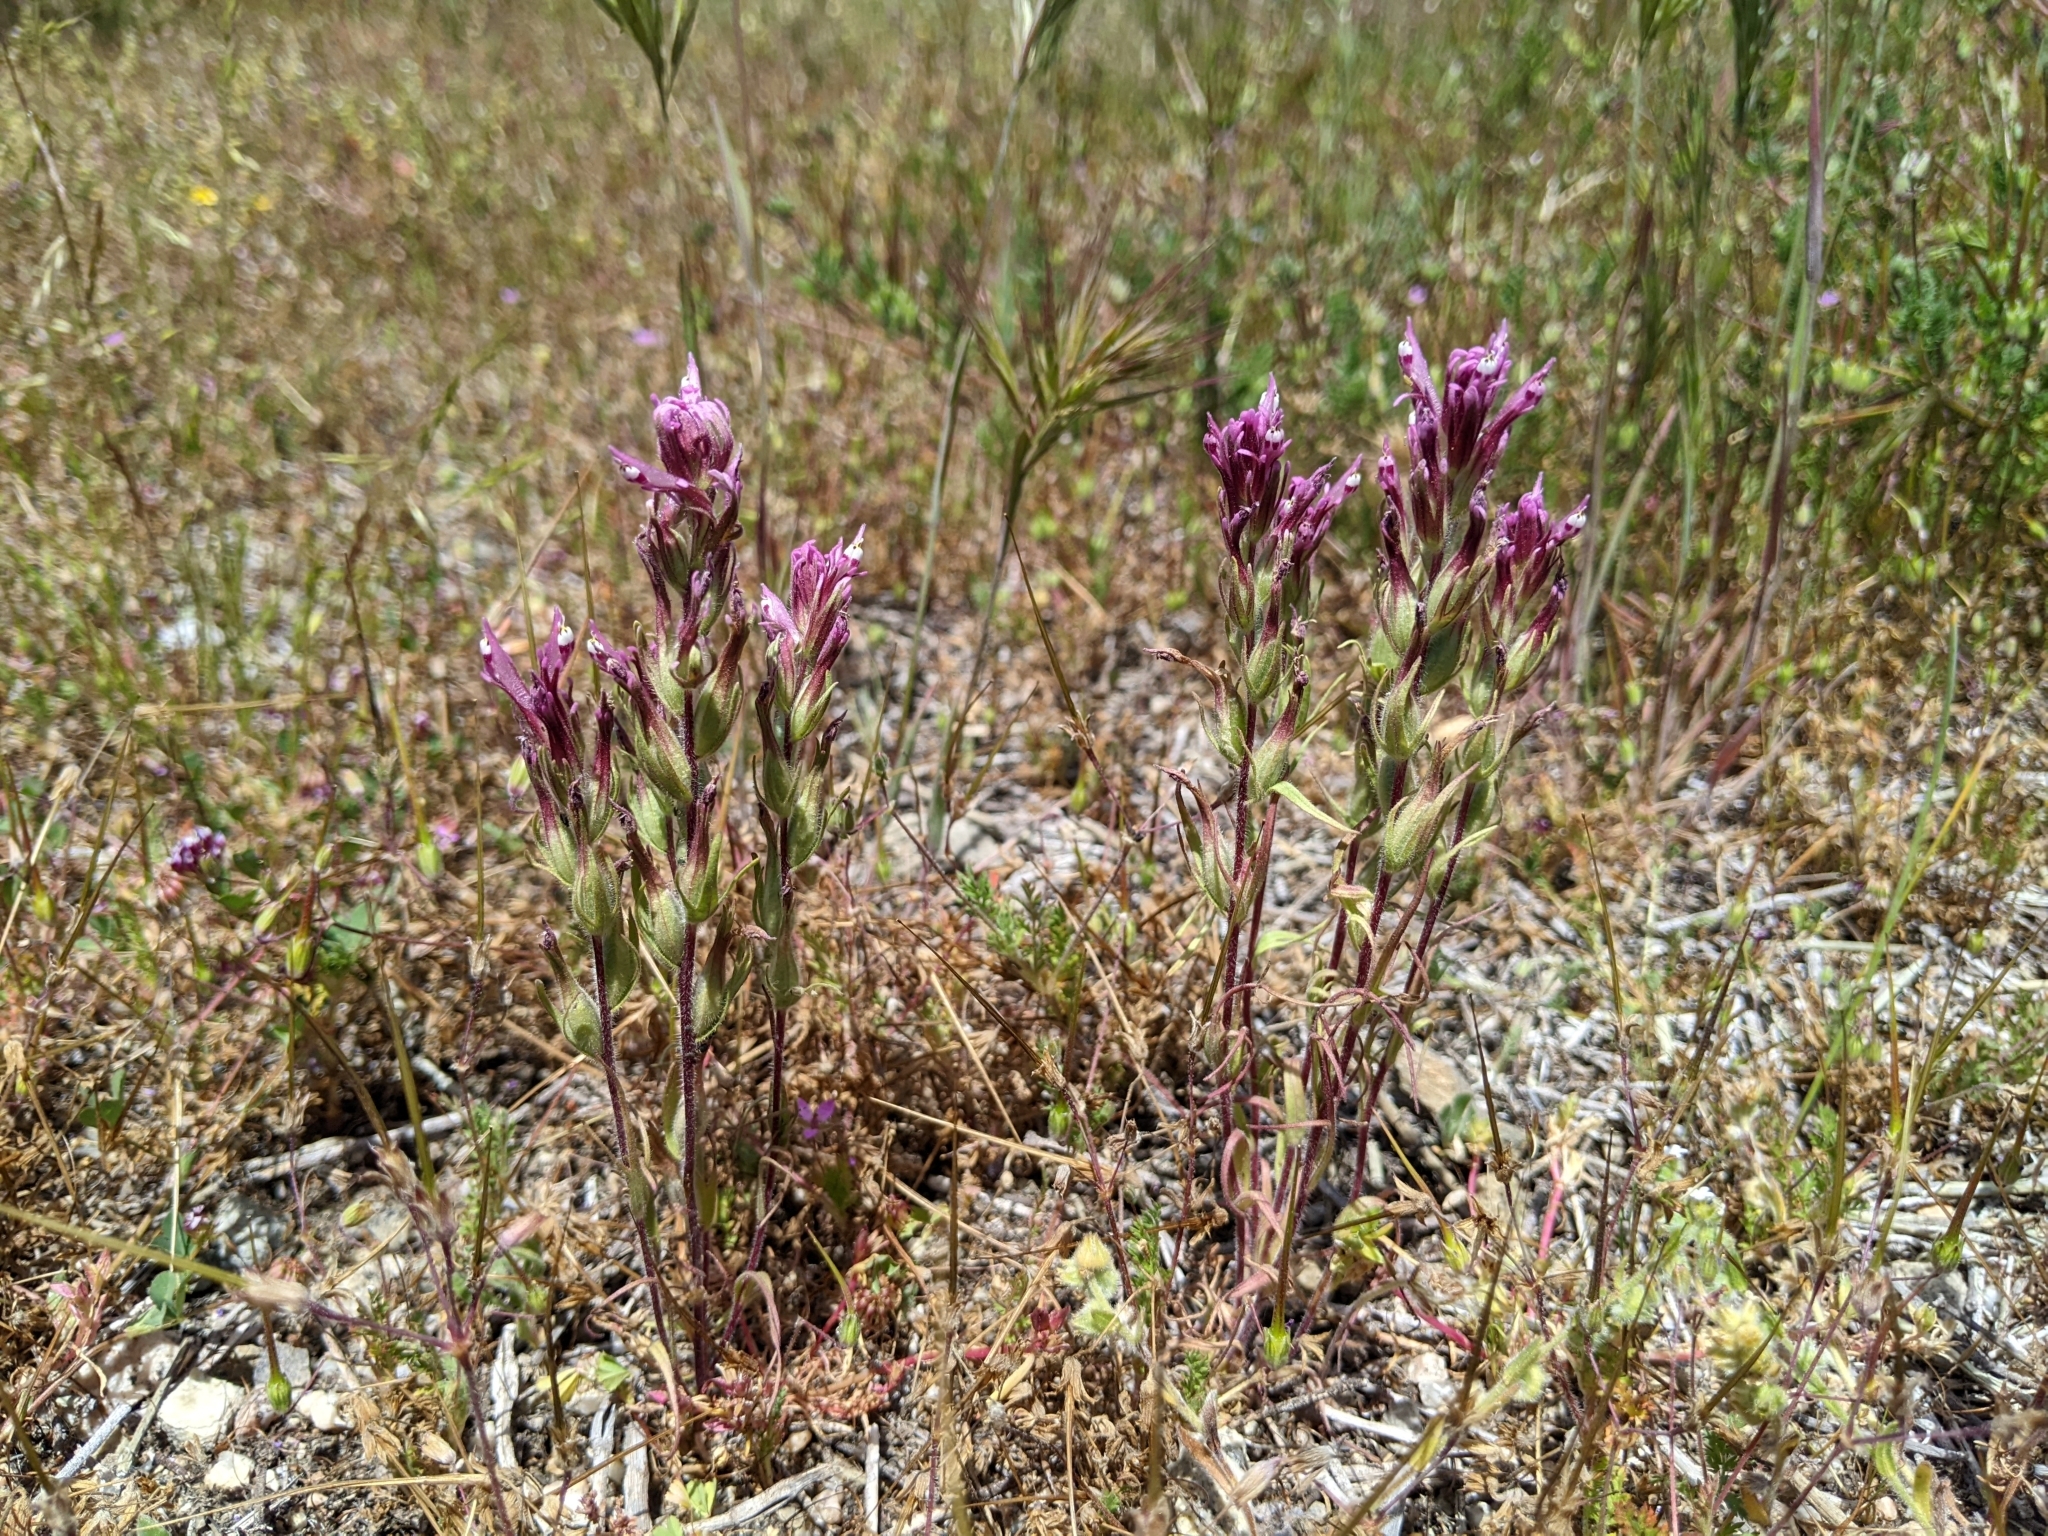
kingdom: Plantae
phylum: Tracheophyta
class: Magnoliopsida
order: Lamiales
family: Orobanchaceae
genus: Castilleja
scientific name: Castilleja brevistyla
